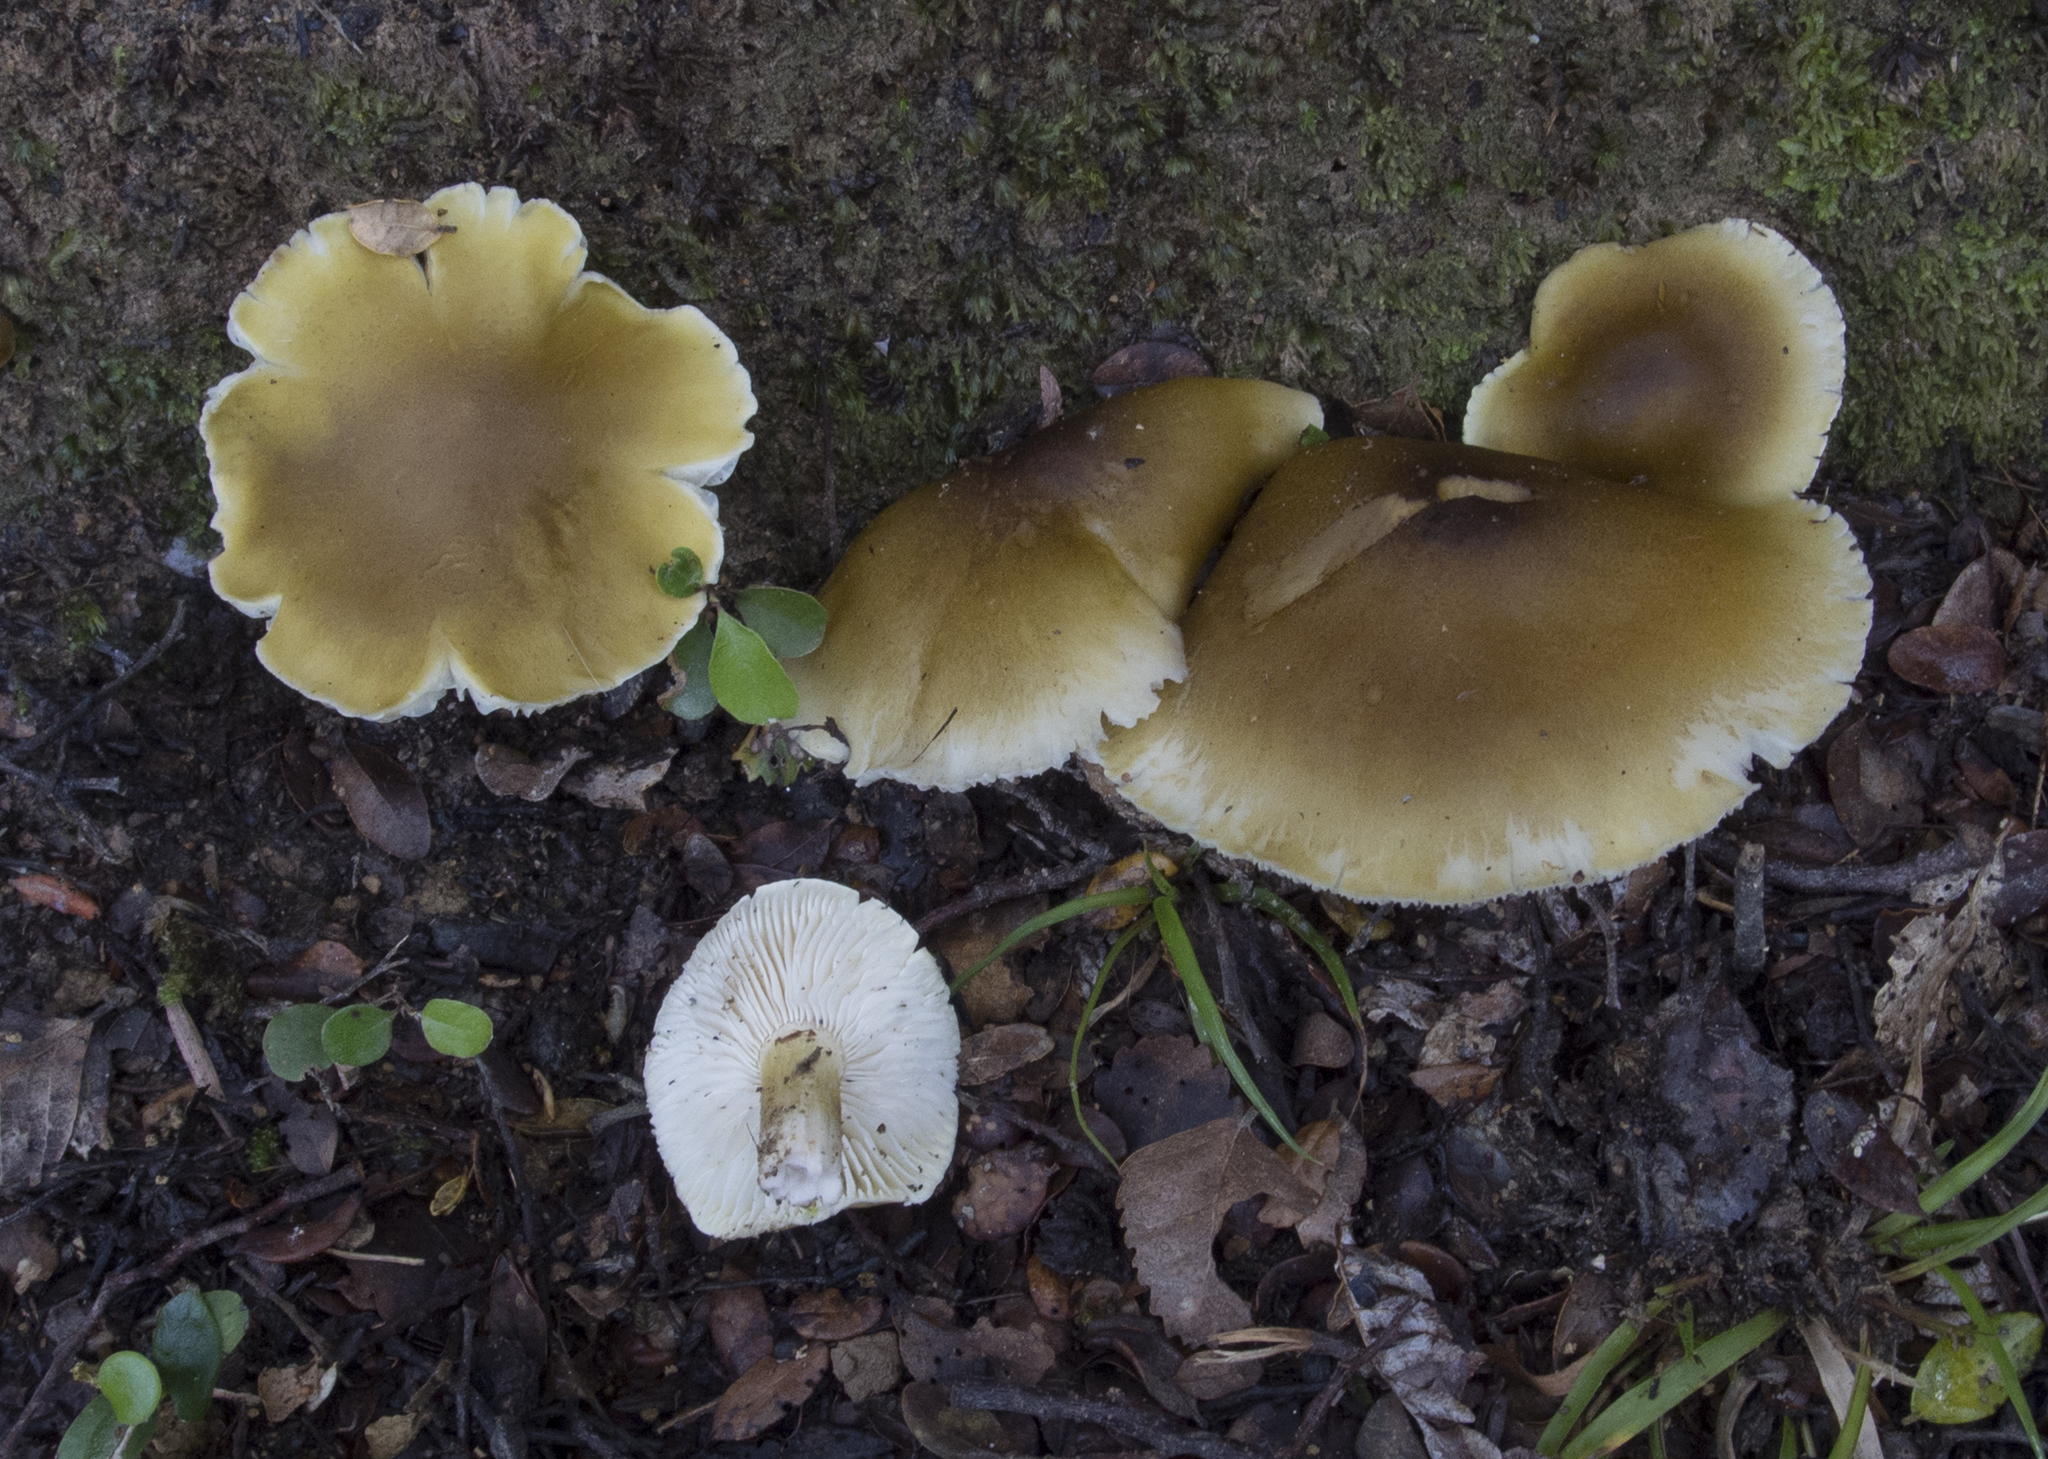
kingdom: Fungi
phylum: Basidiomycota
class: Agaricomycetes
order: Agaricales
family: Tricholomataceae
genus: Tricholoma
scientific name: Tricholoma viridiolivaceum
